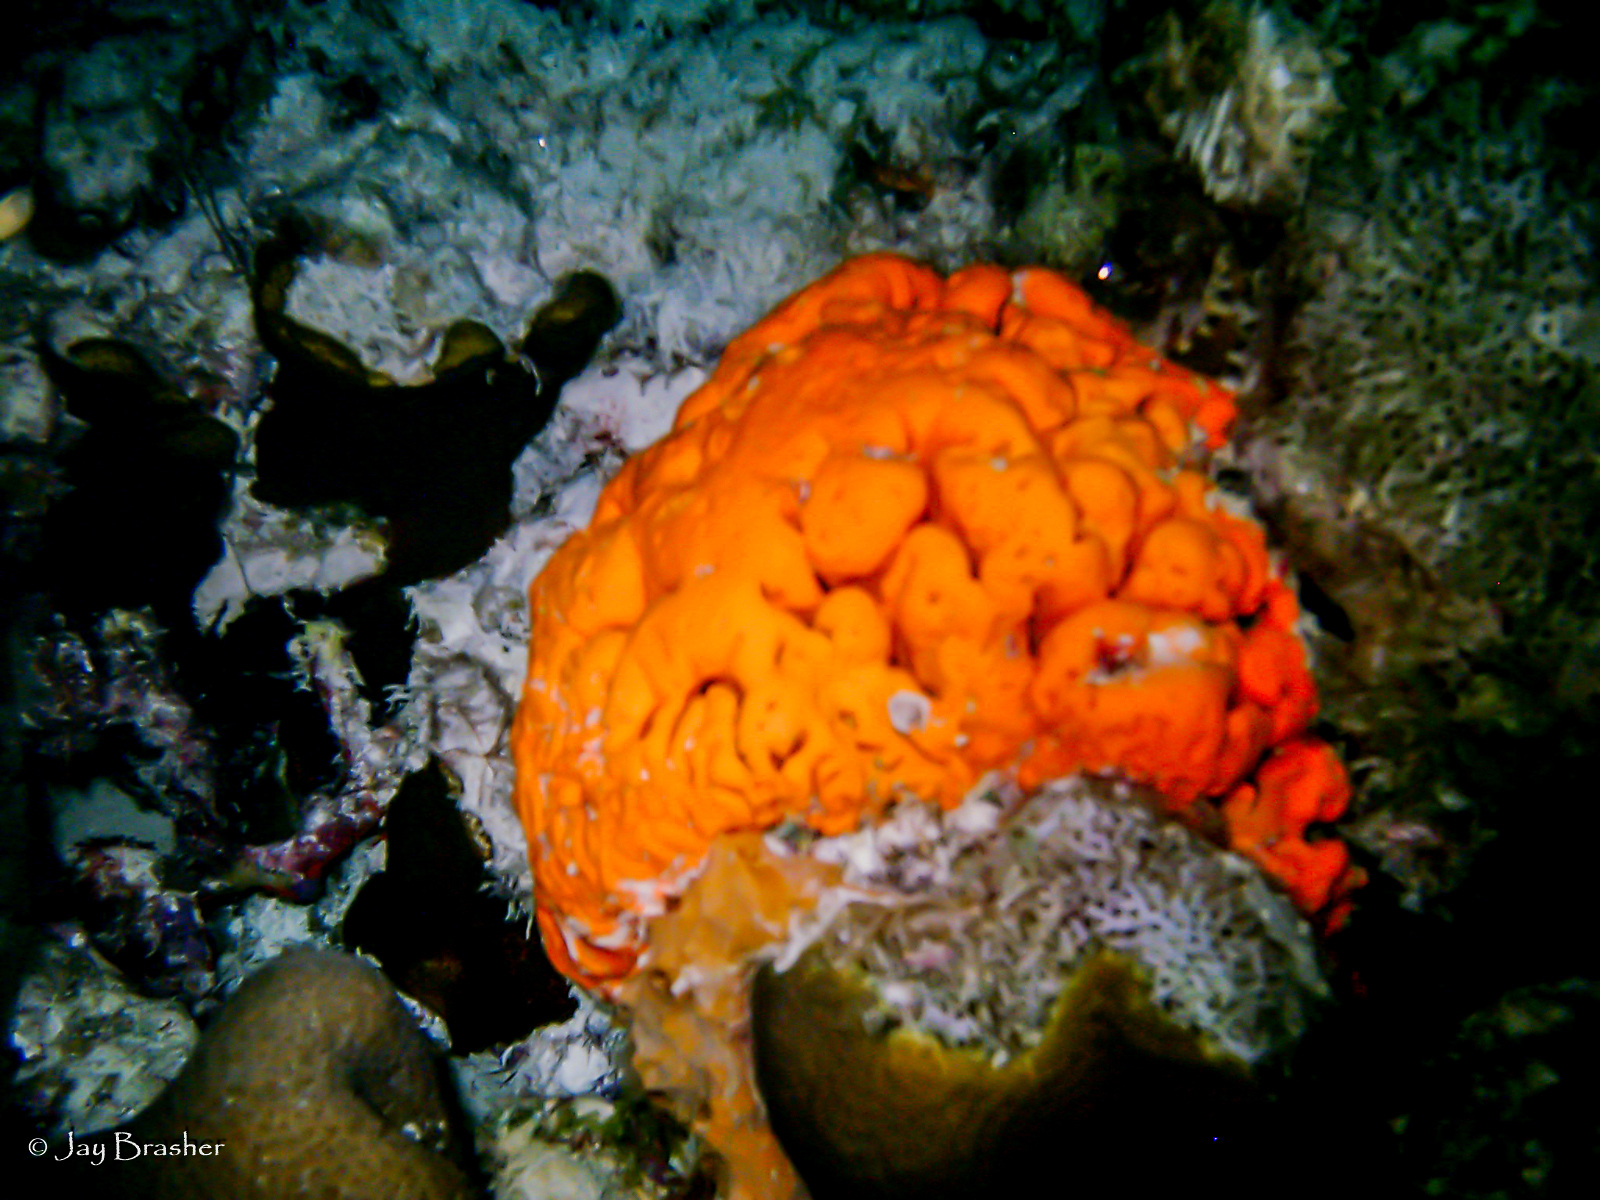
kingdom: Animalia
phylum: Porifera
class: Demospongiae
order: Agelasida
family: Agelasidae
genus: Agelas
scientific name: Agelas clathrodes
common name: Orange elephant ear sponge
